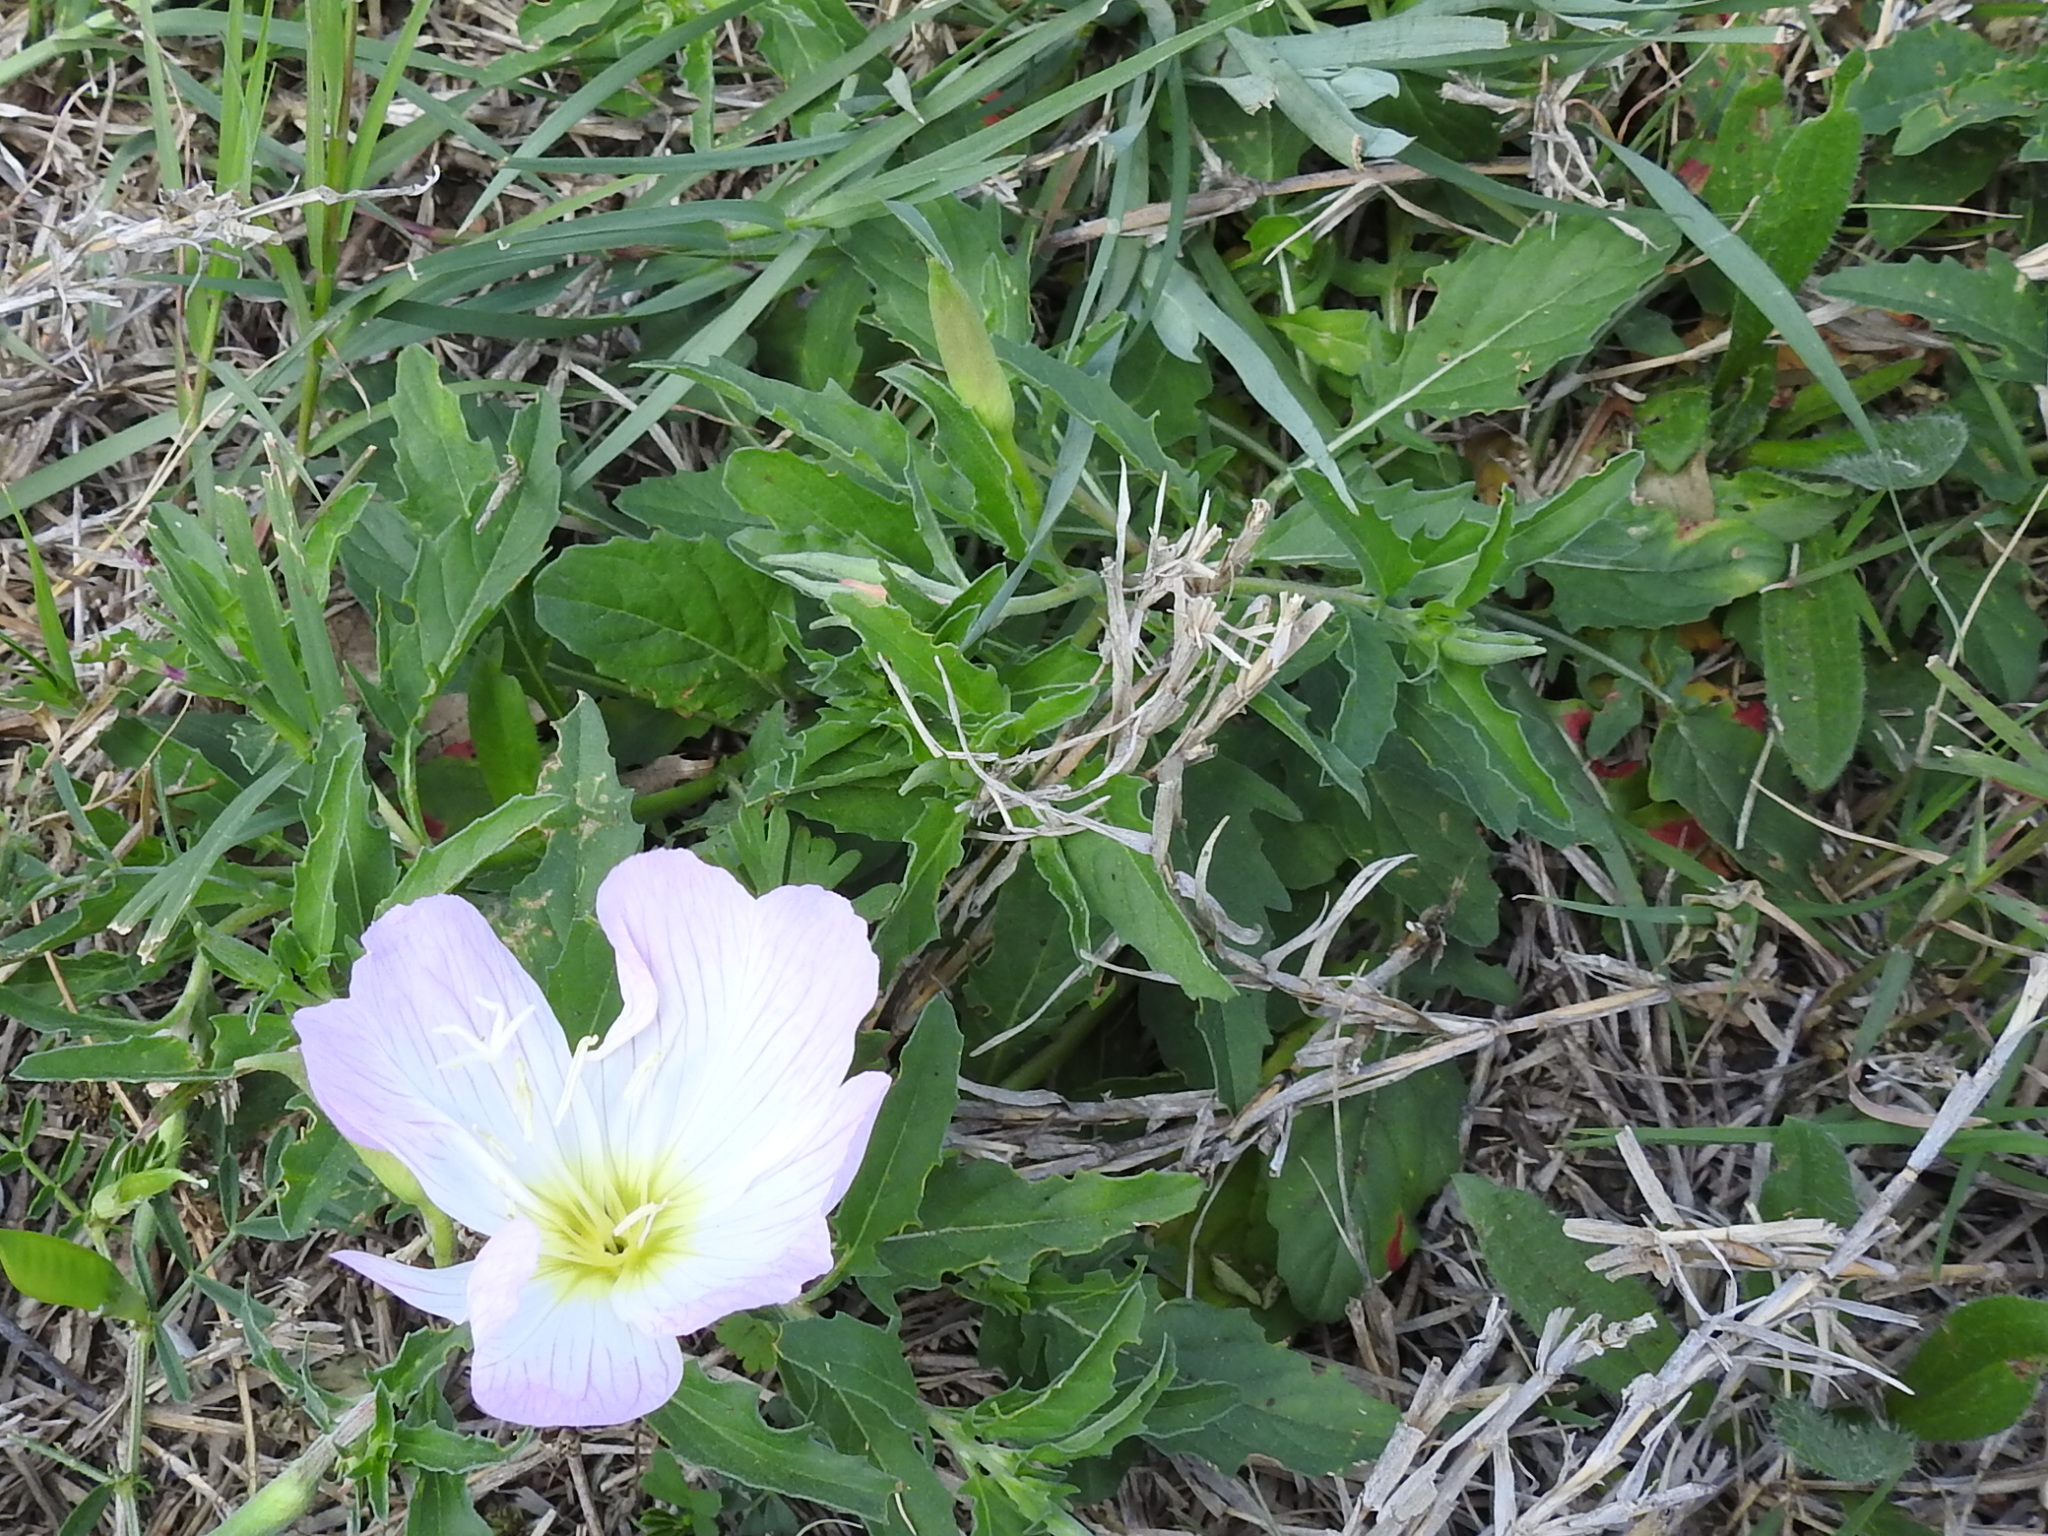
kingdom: Plantae
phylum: Tracheophyta
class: Magnoliopsida
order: Myrtales
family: Onagraceae
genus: Oenothera
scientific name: Oenothera speciosa
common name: White evening-primrose
